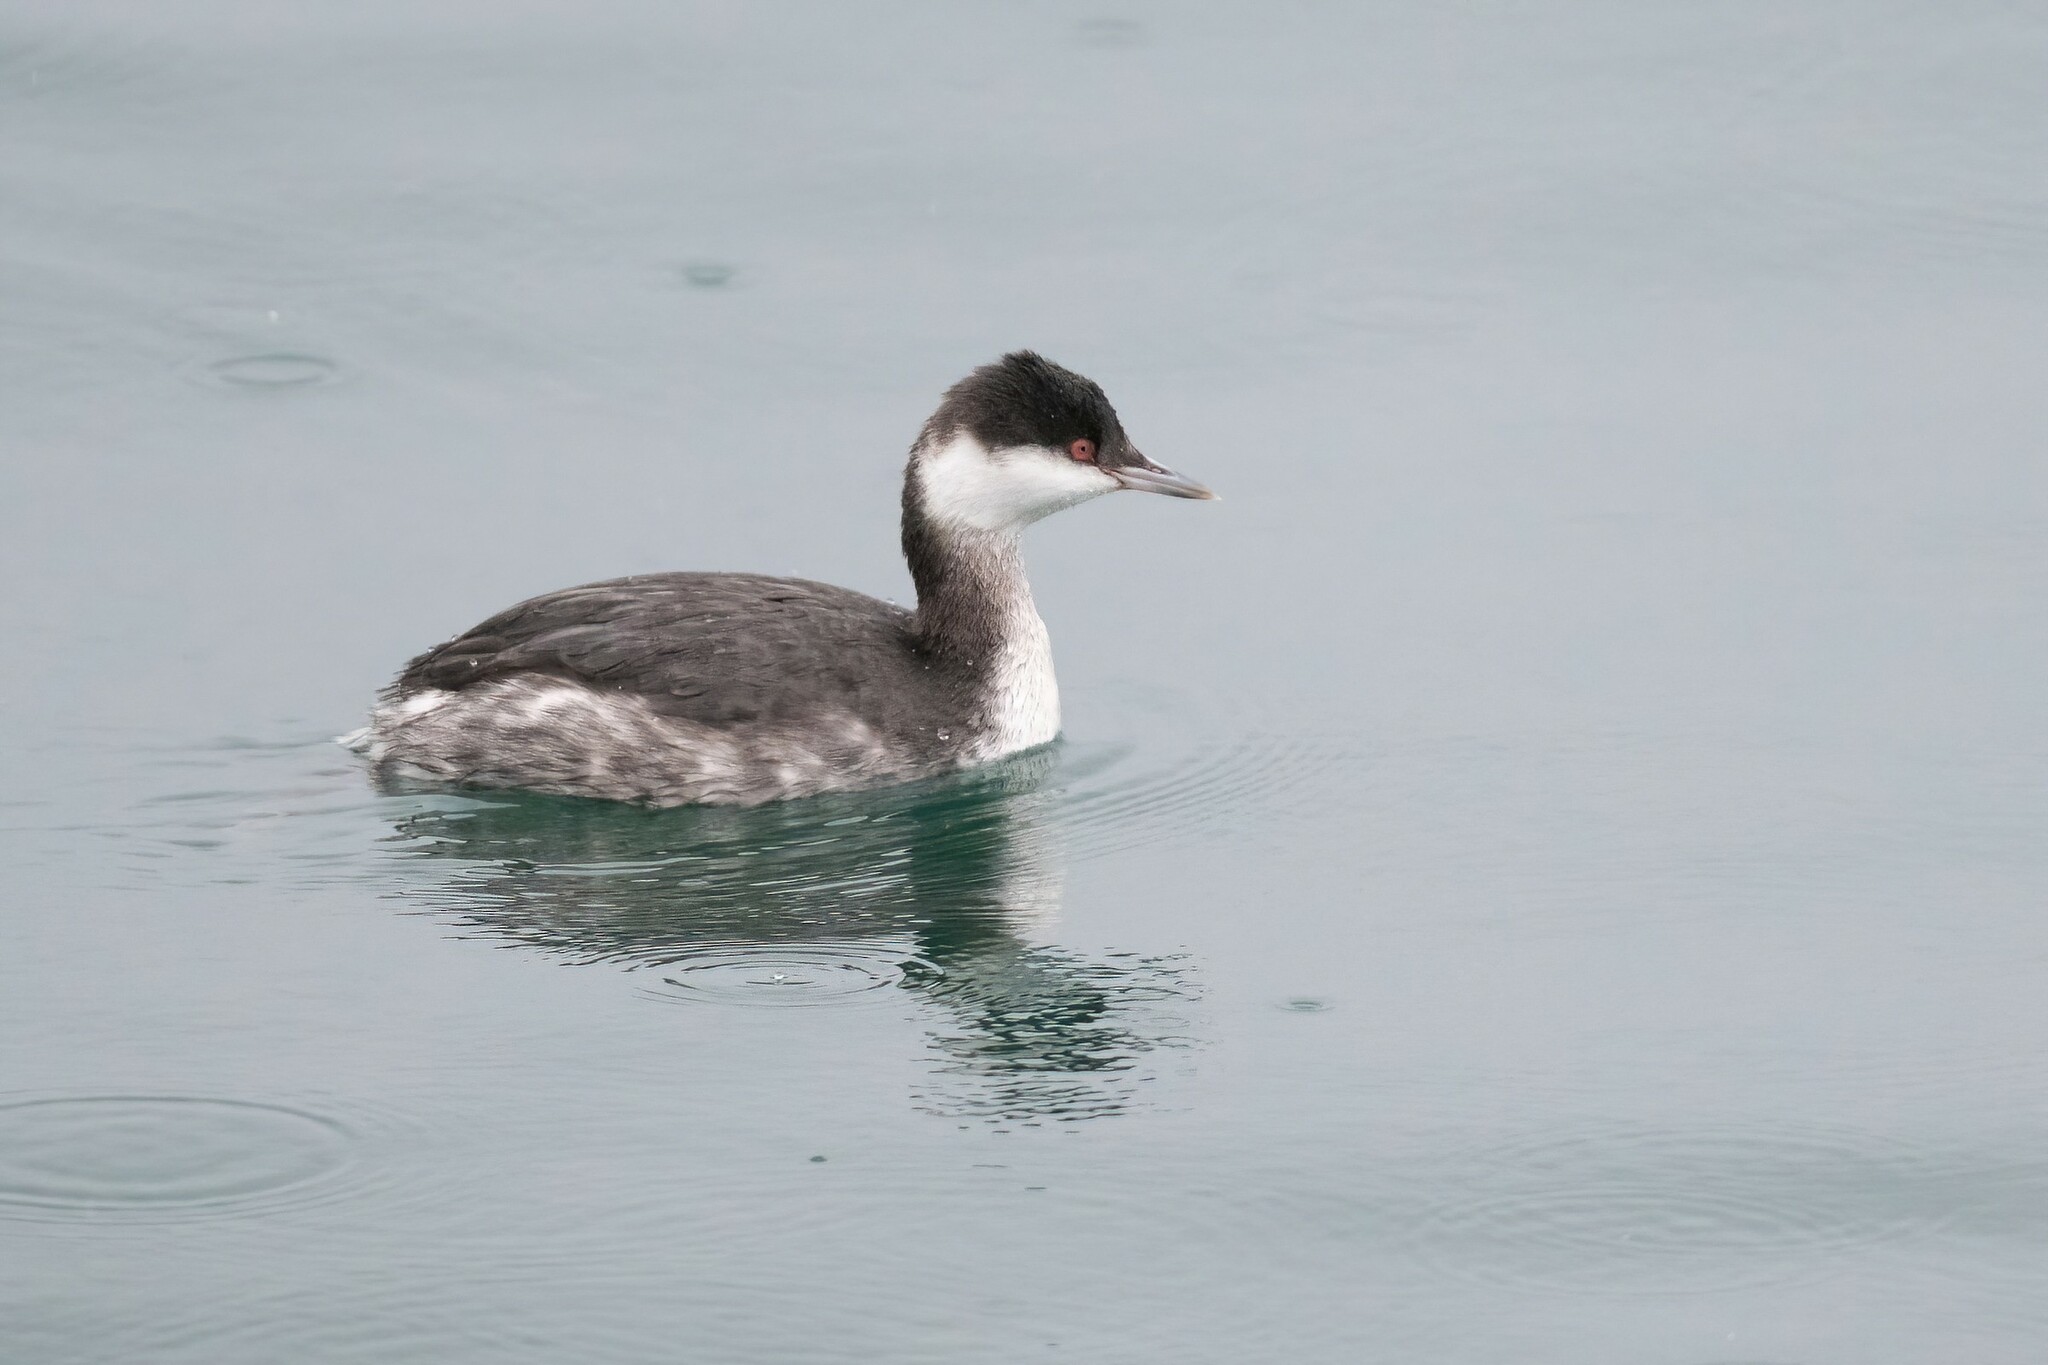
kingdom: Animalia
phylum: Chordata
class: Aves
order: Podicipediformes
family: Podicipedidae
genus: Podiceps
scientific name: Podiceps auritus
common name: Horned grebe
